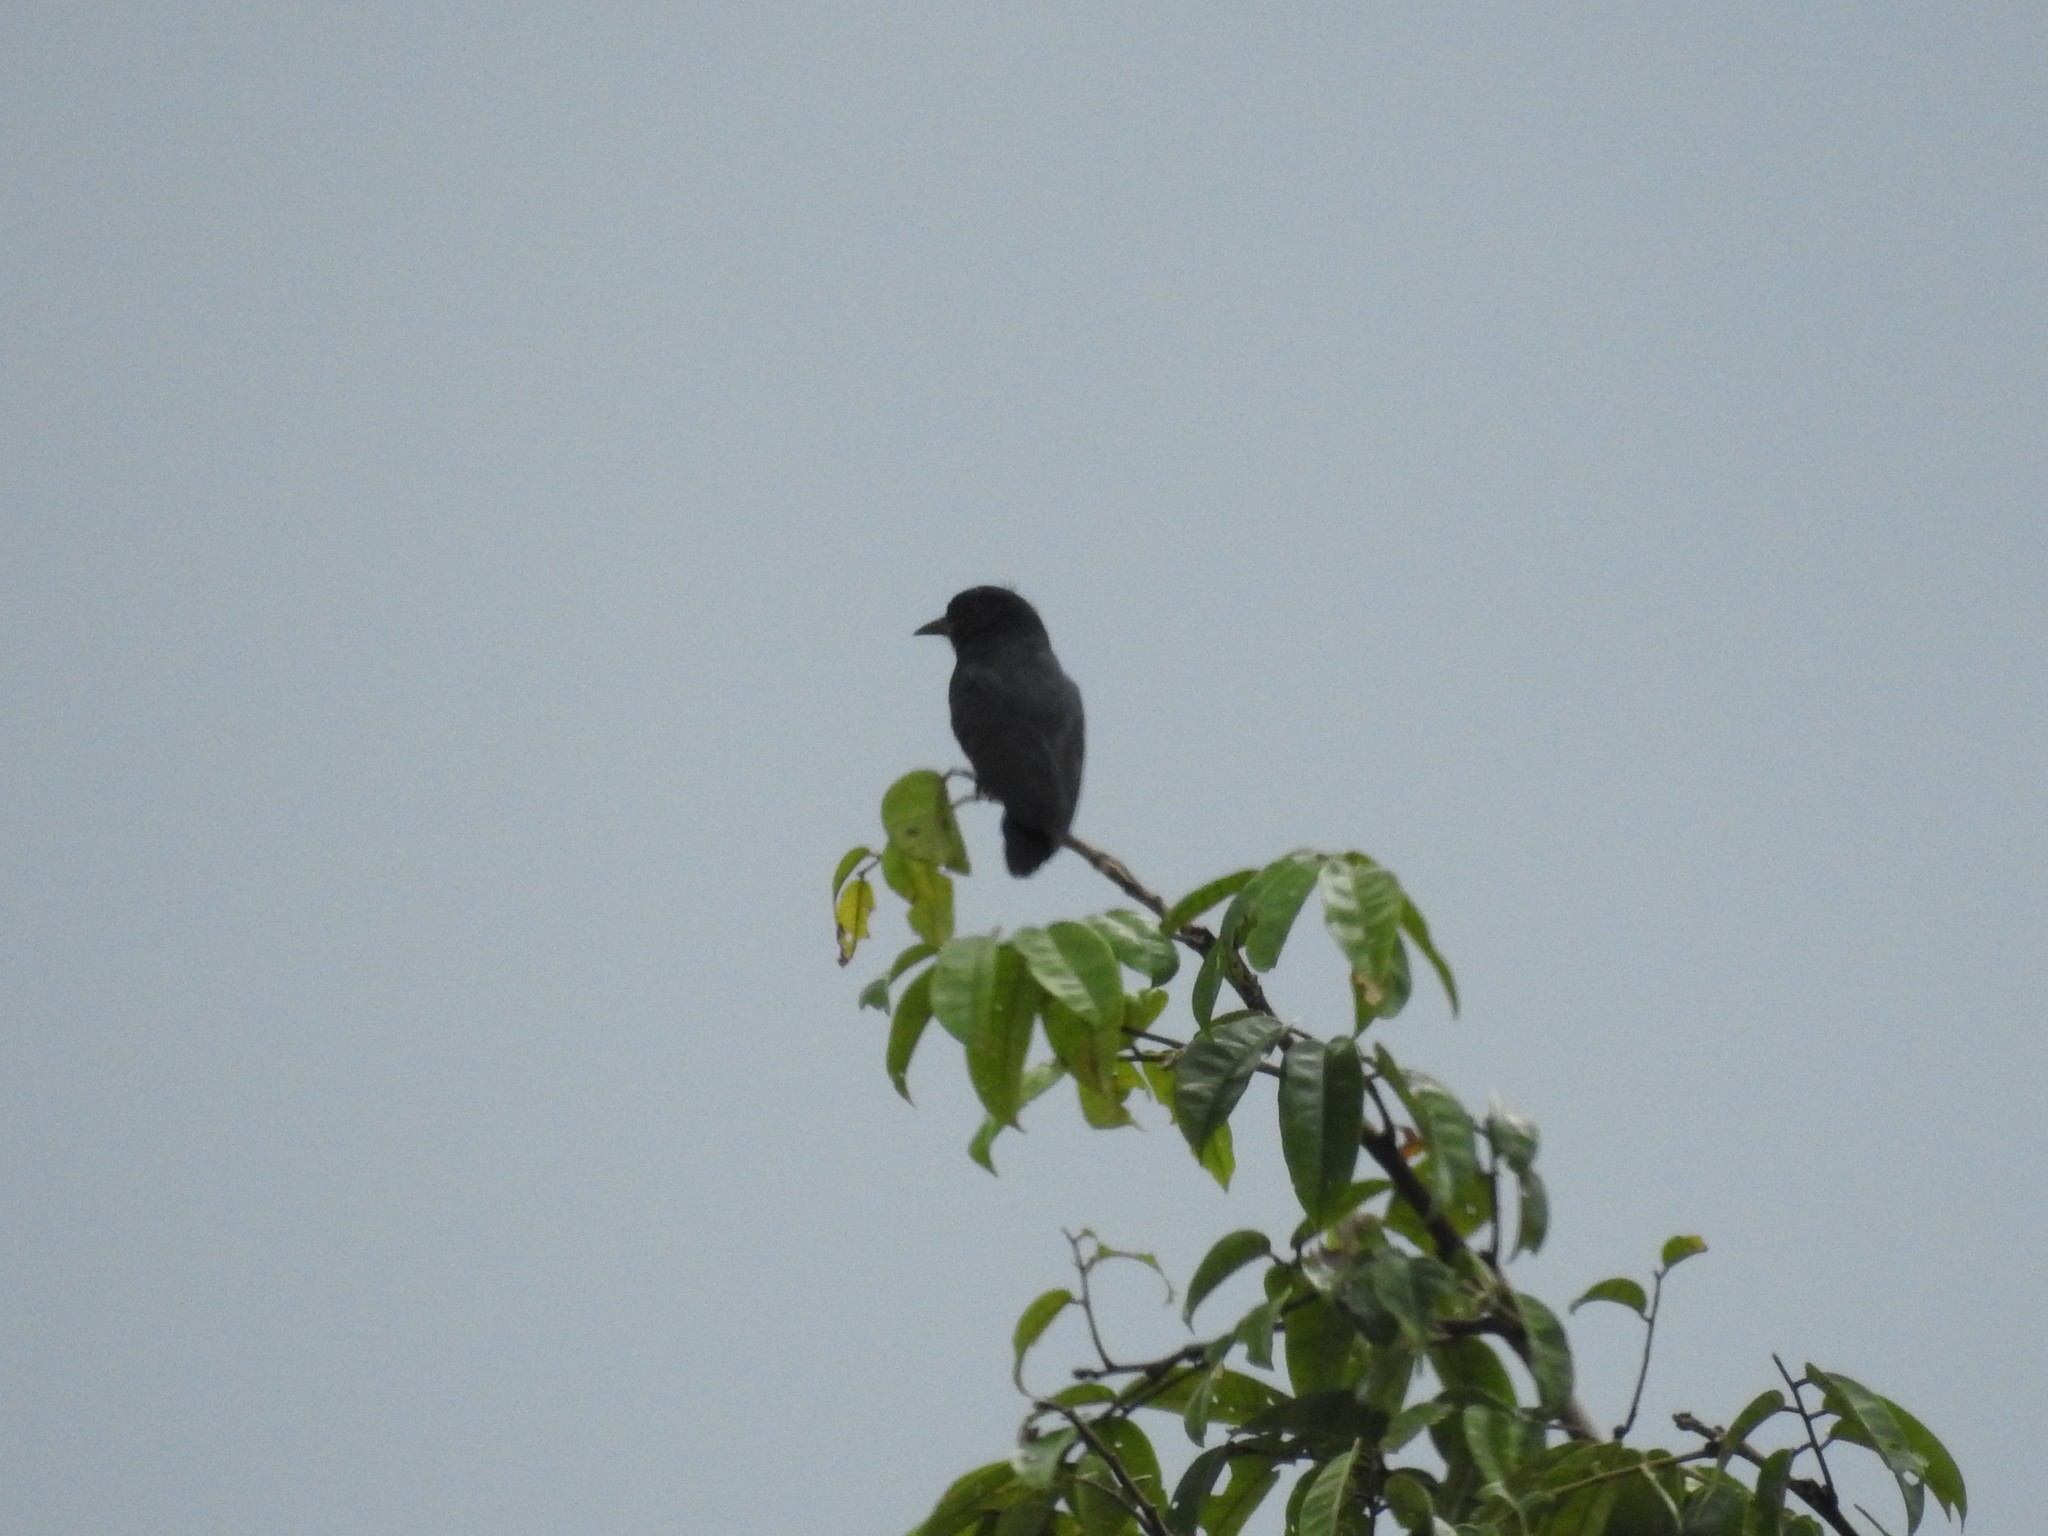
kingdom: Animalia
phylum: Chordata
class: Aves
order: Piciformes
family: Bucconidae
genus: Chelidoptera
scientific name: Chelidoptera tenebrosa
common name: Swallow-winged puffbird
